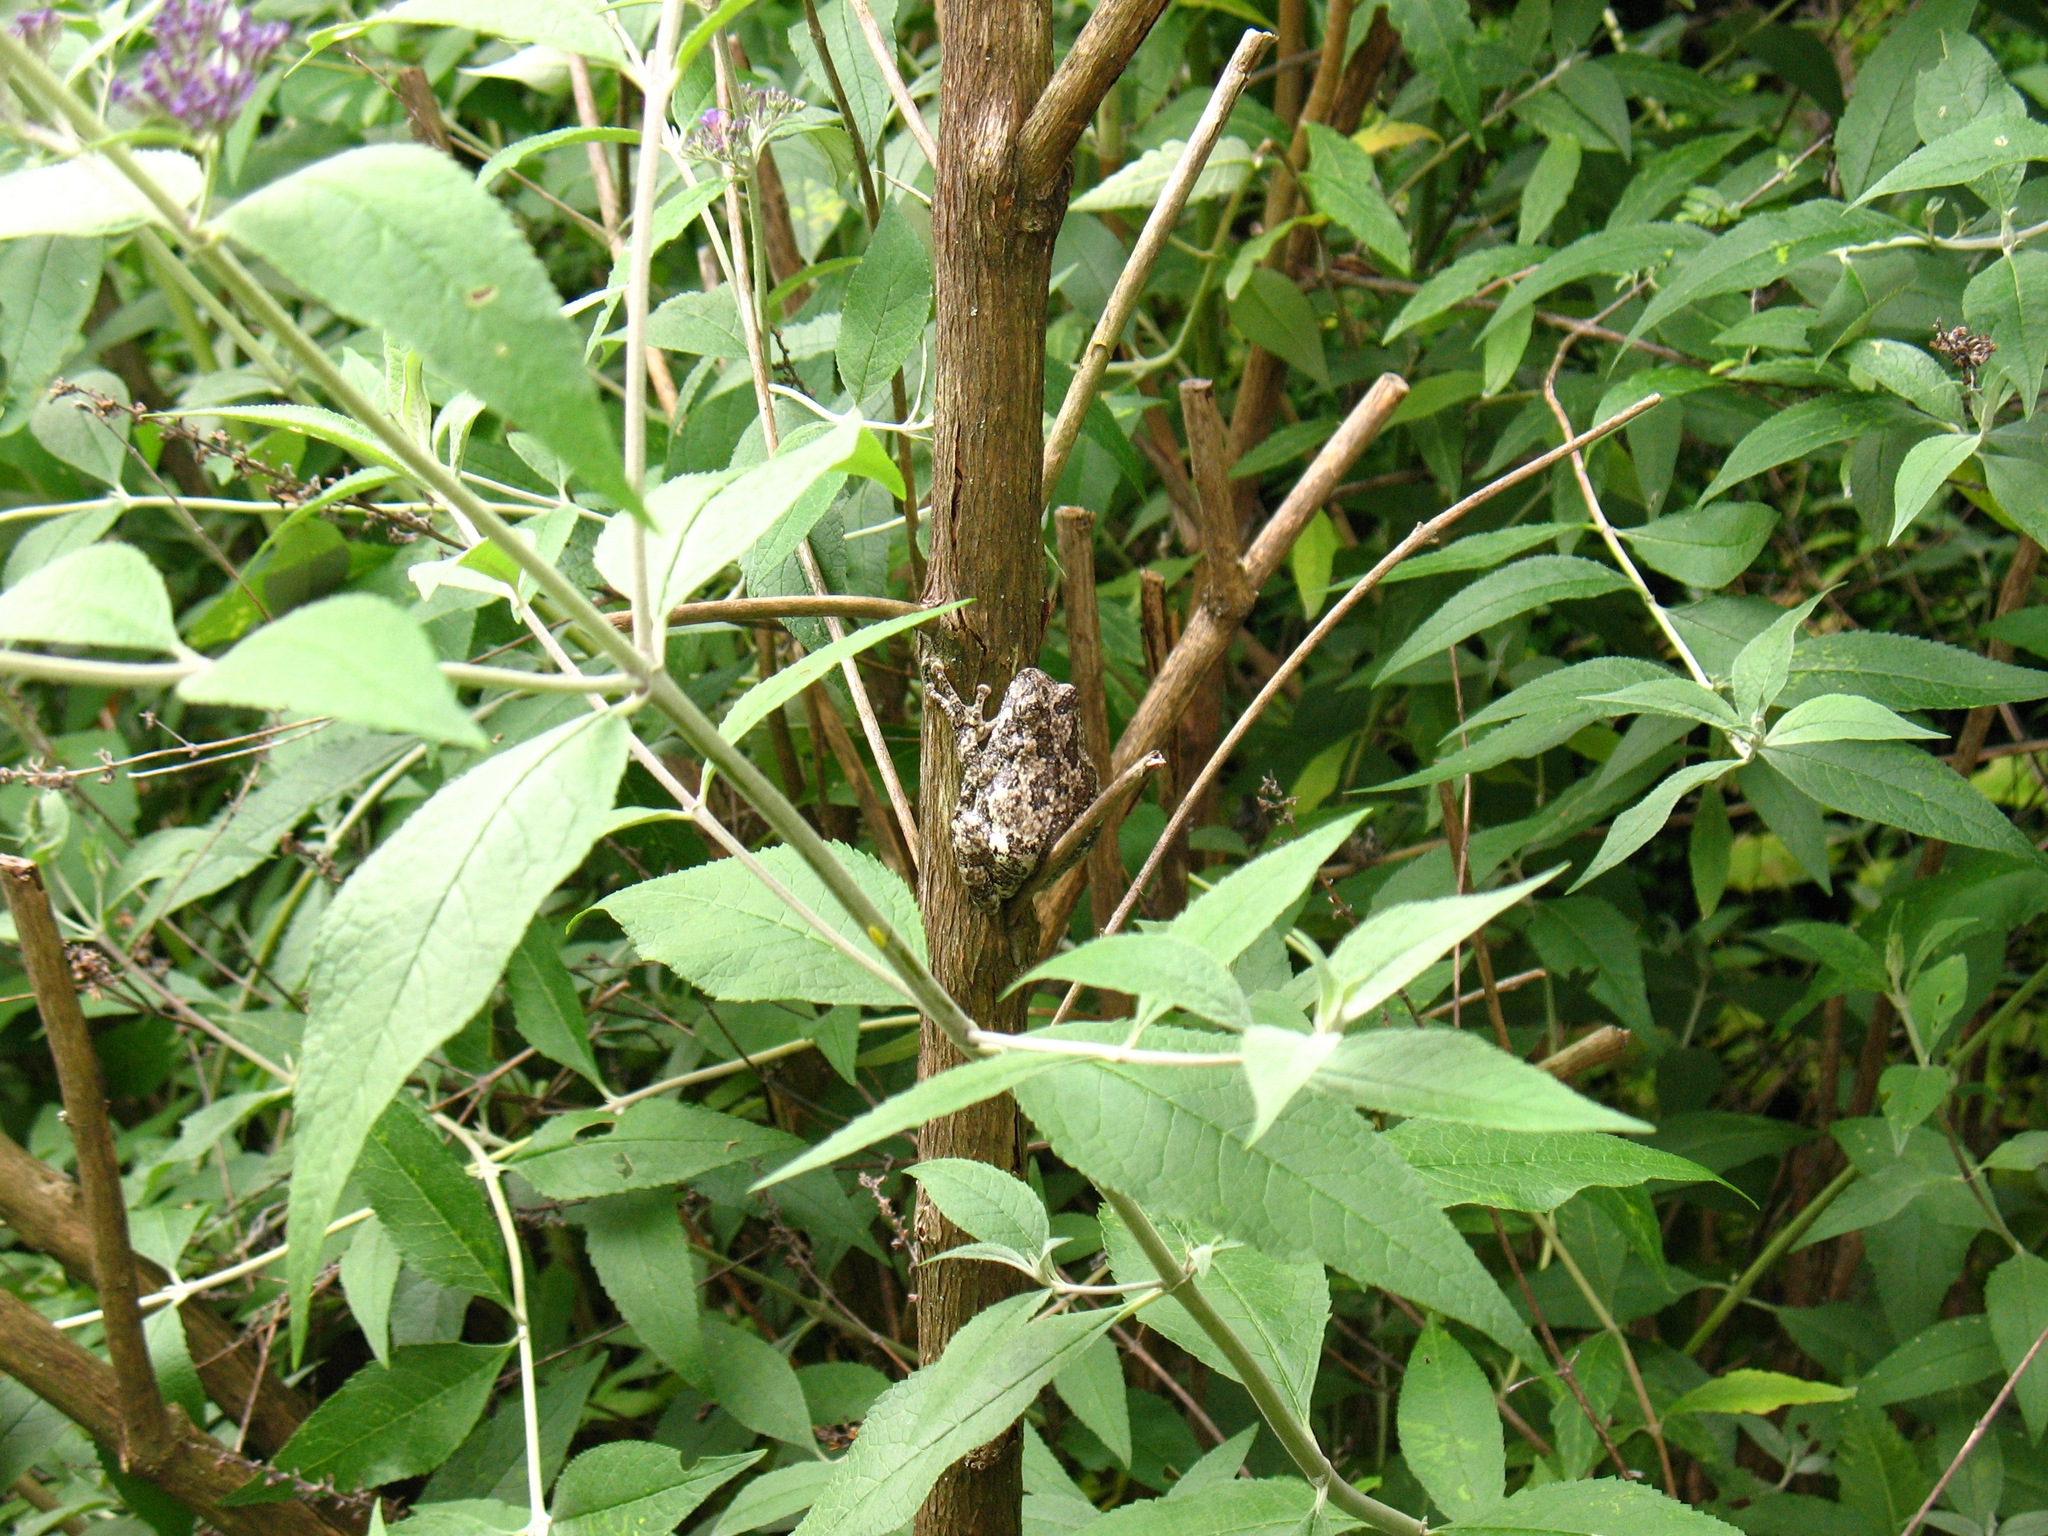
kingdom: Animalia
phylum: Chordata
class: Amphibia
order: Anura
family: Hylidae
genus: Dryophytes
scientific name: Dryophytes versicolor
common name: Gray treefrog
